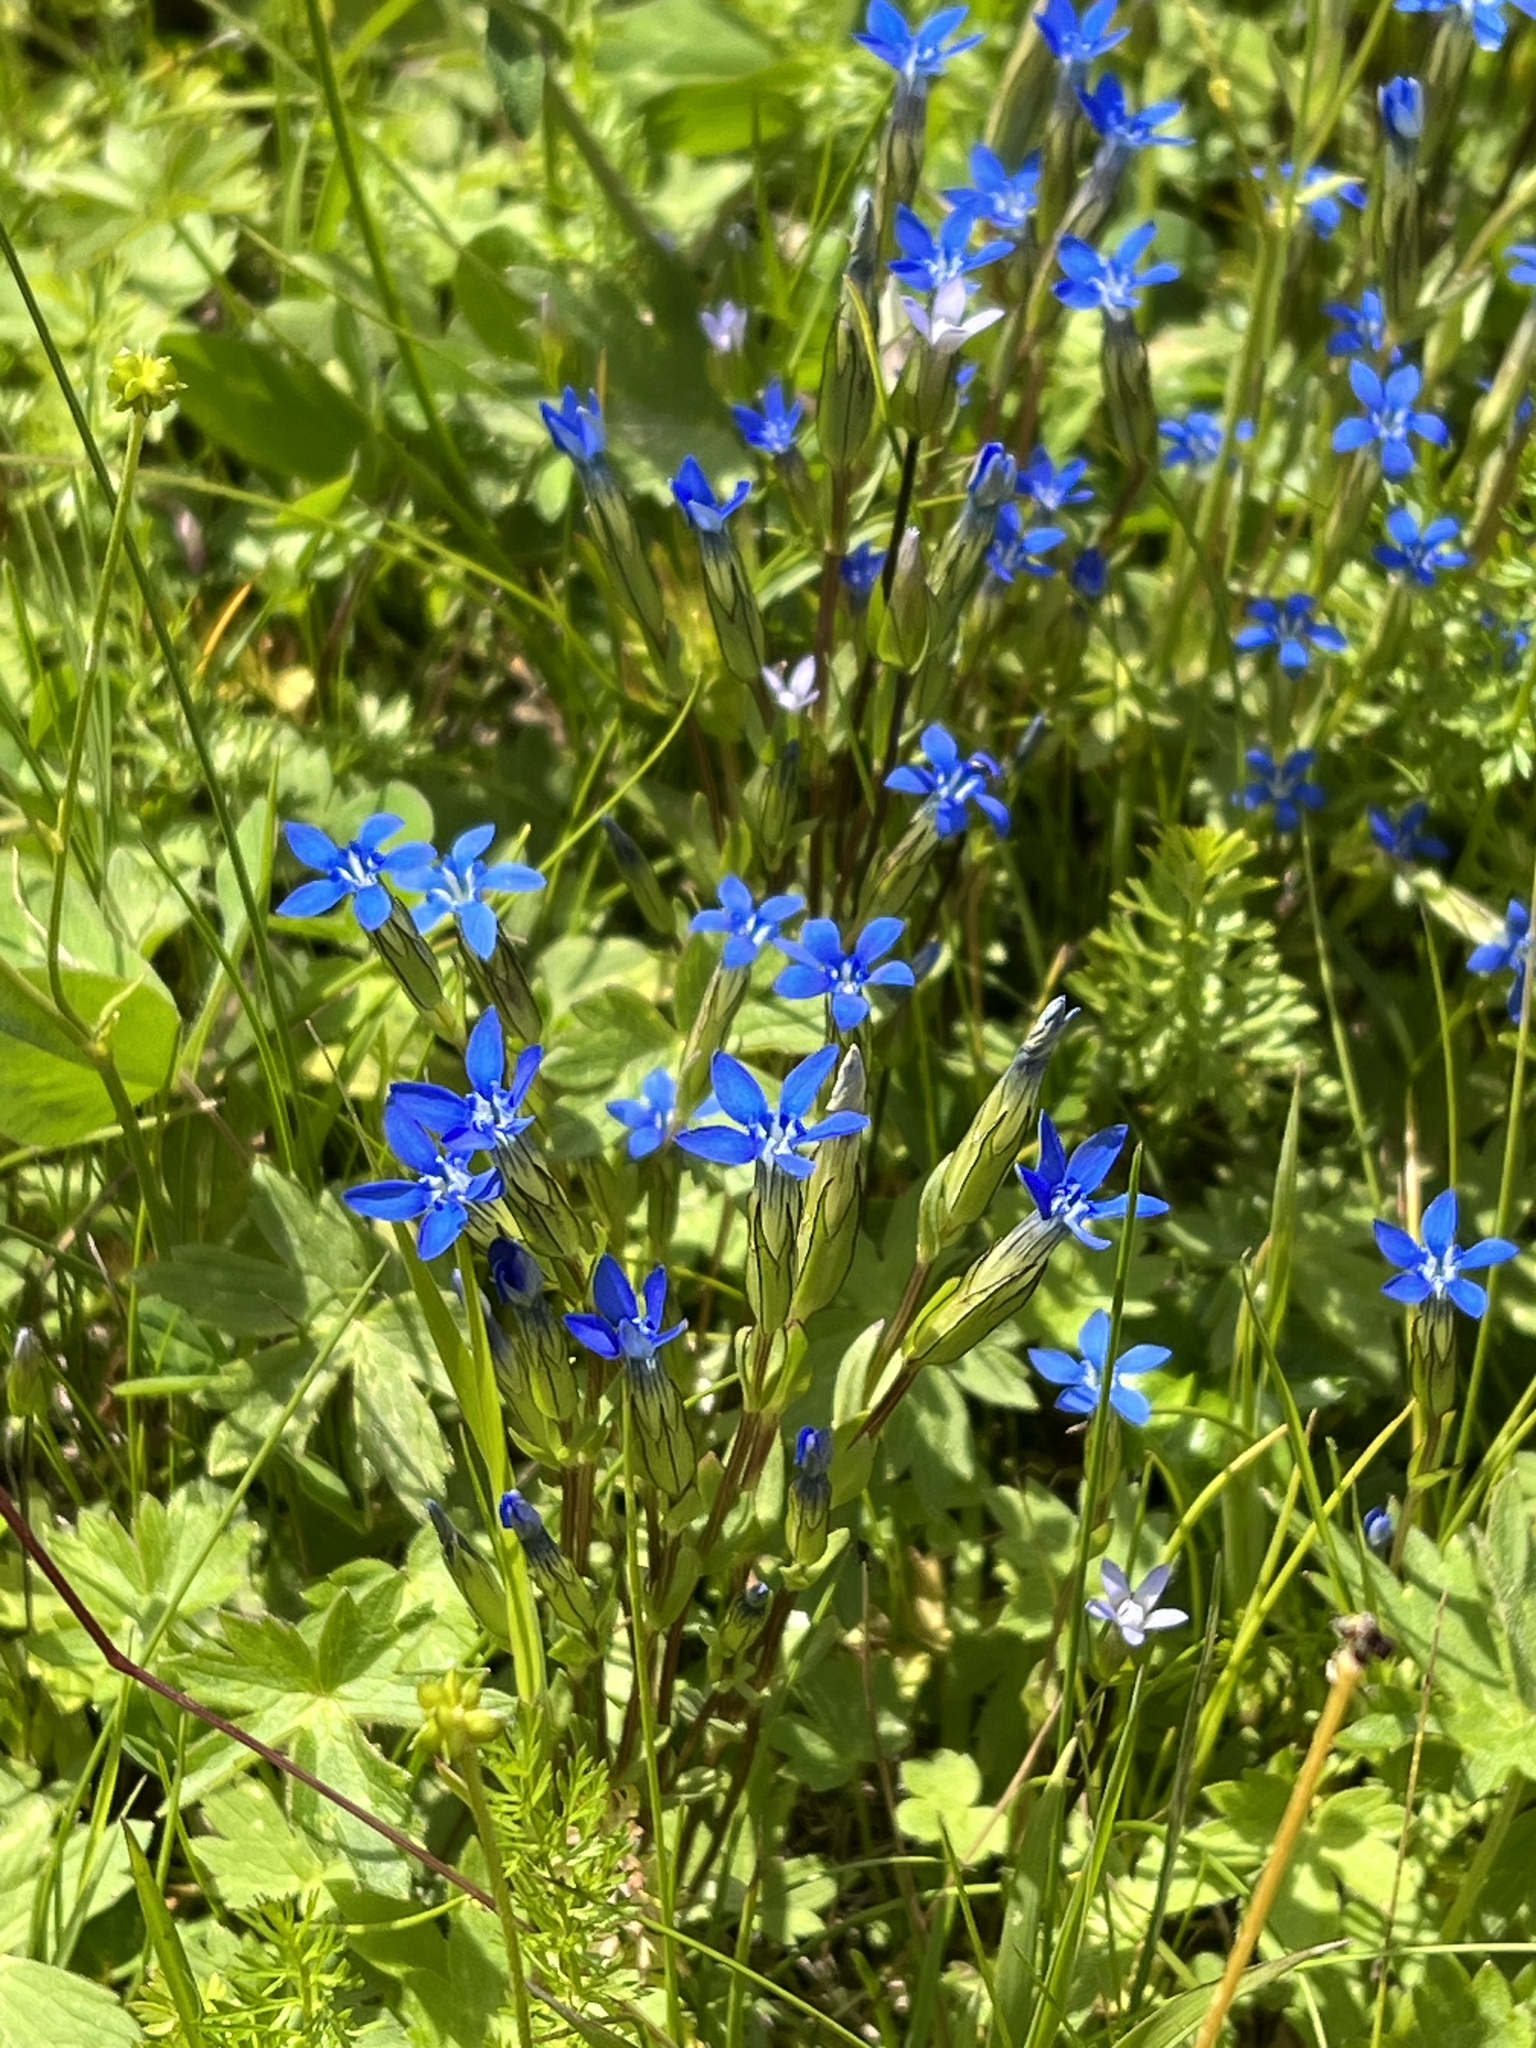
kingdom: Plantae
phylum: Tracheophyta
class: Magnoliopsida
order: Gentianales
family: Gentianaceae
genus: Gentiana
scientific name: Gentiana nivalis
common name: Alpine gentian
